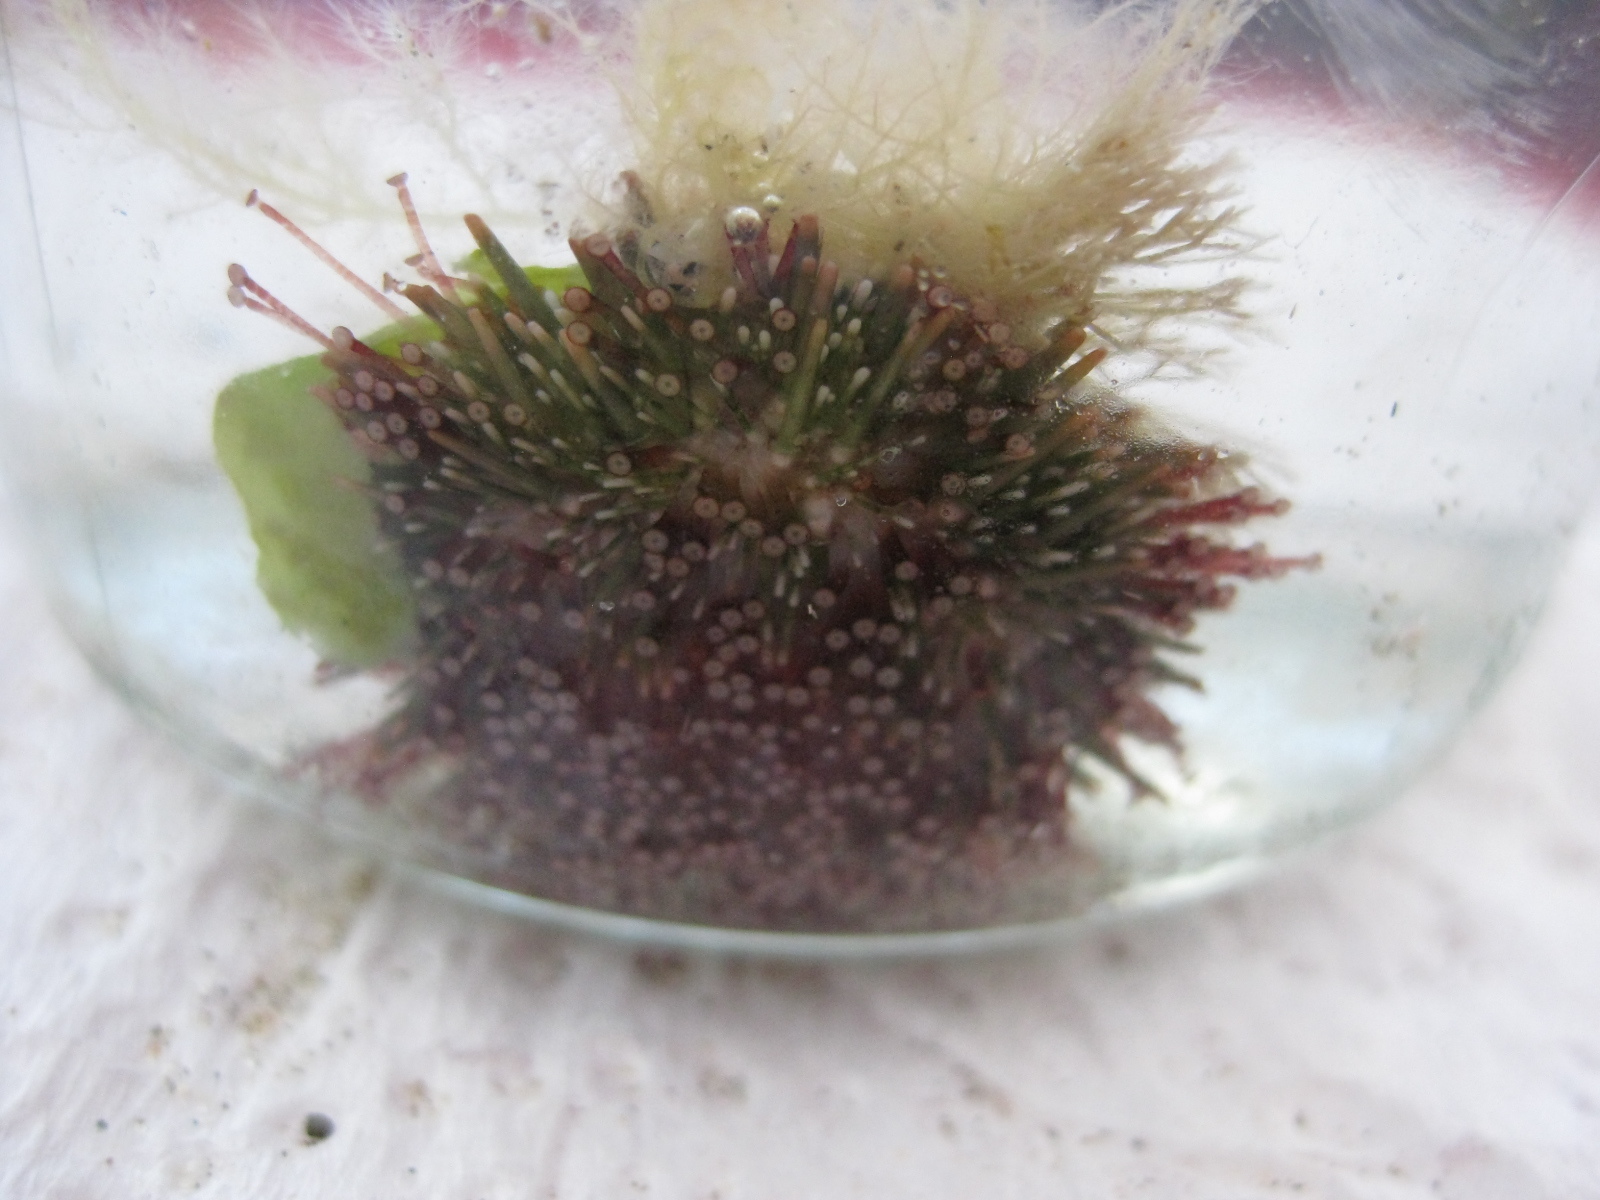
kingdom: Animalia
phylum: Echinodermata
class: Echinoidea
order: Camarodonta
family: Echinometridae
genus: Evechinus
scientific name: Evechinus chloroticus
